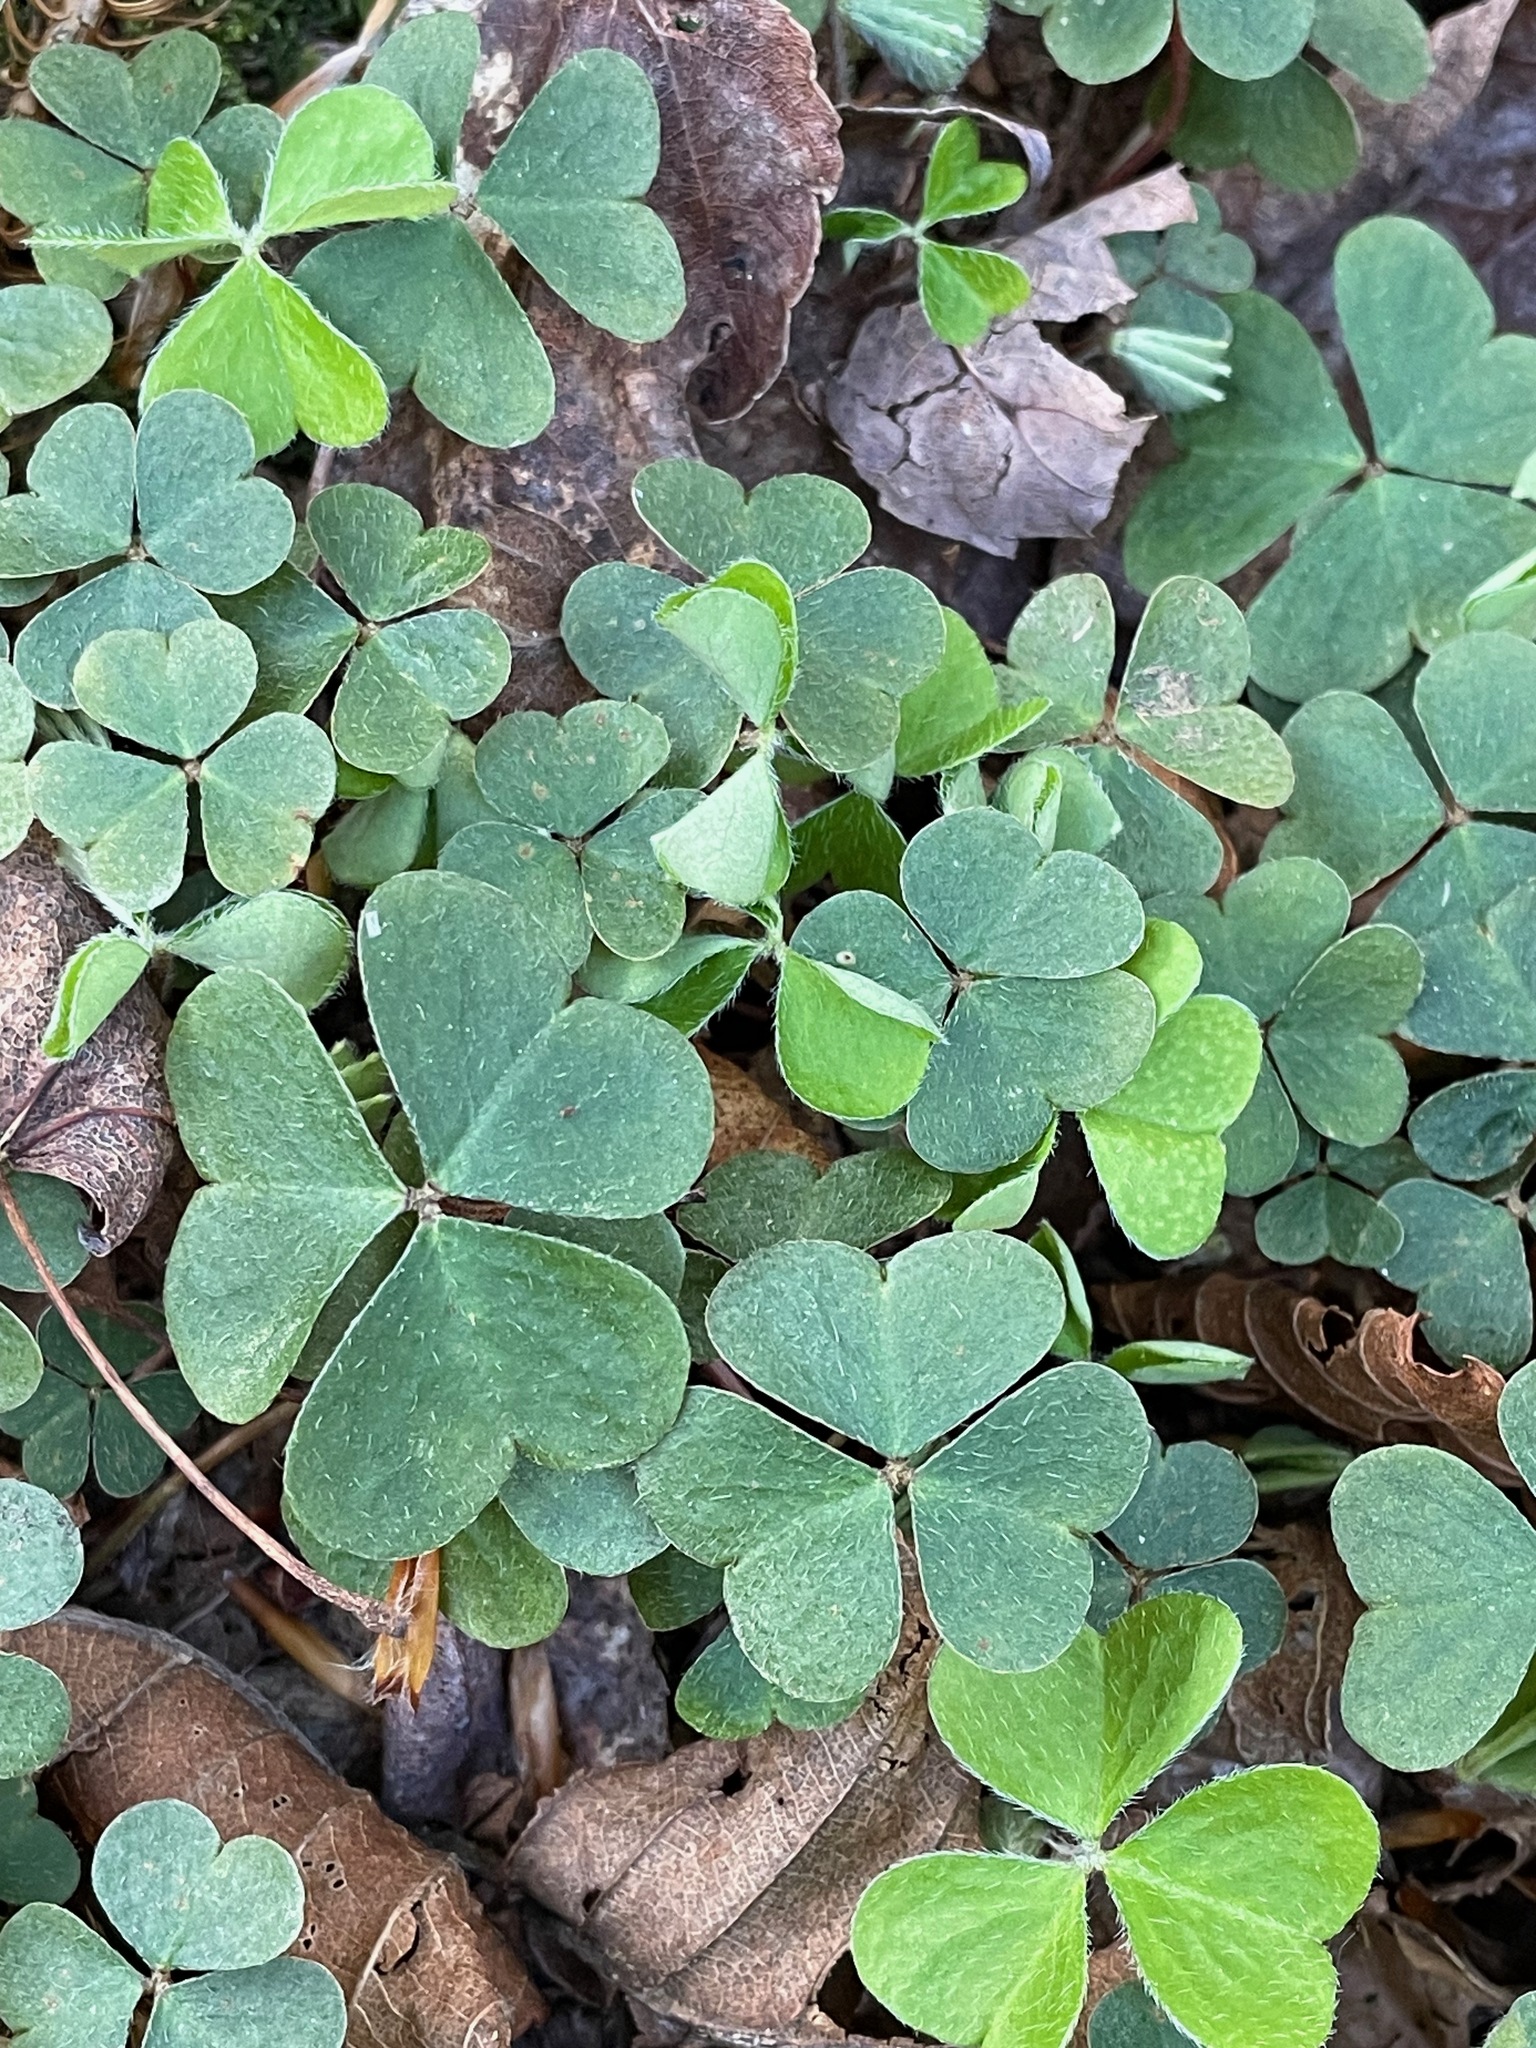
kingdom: Plantae
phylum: Tracheophyta
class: Magnoliopsida
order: Oxalidales
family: Oxalidaceae
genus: Oxalis
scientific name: Oxalis montana
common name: American wood-sorrel
